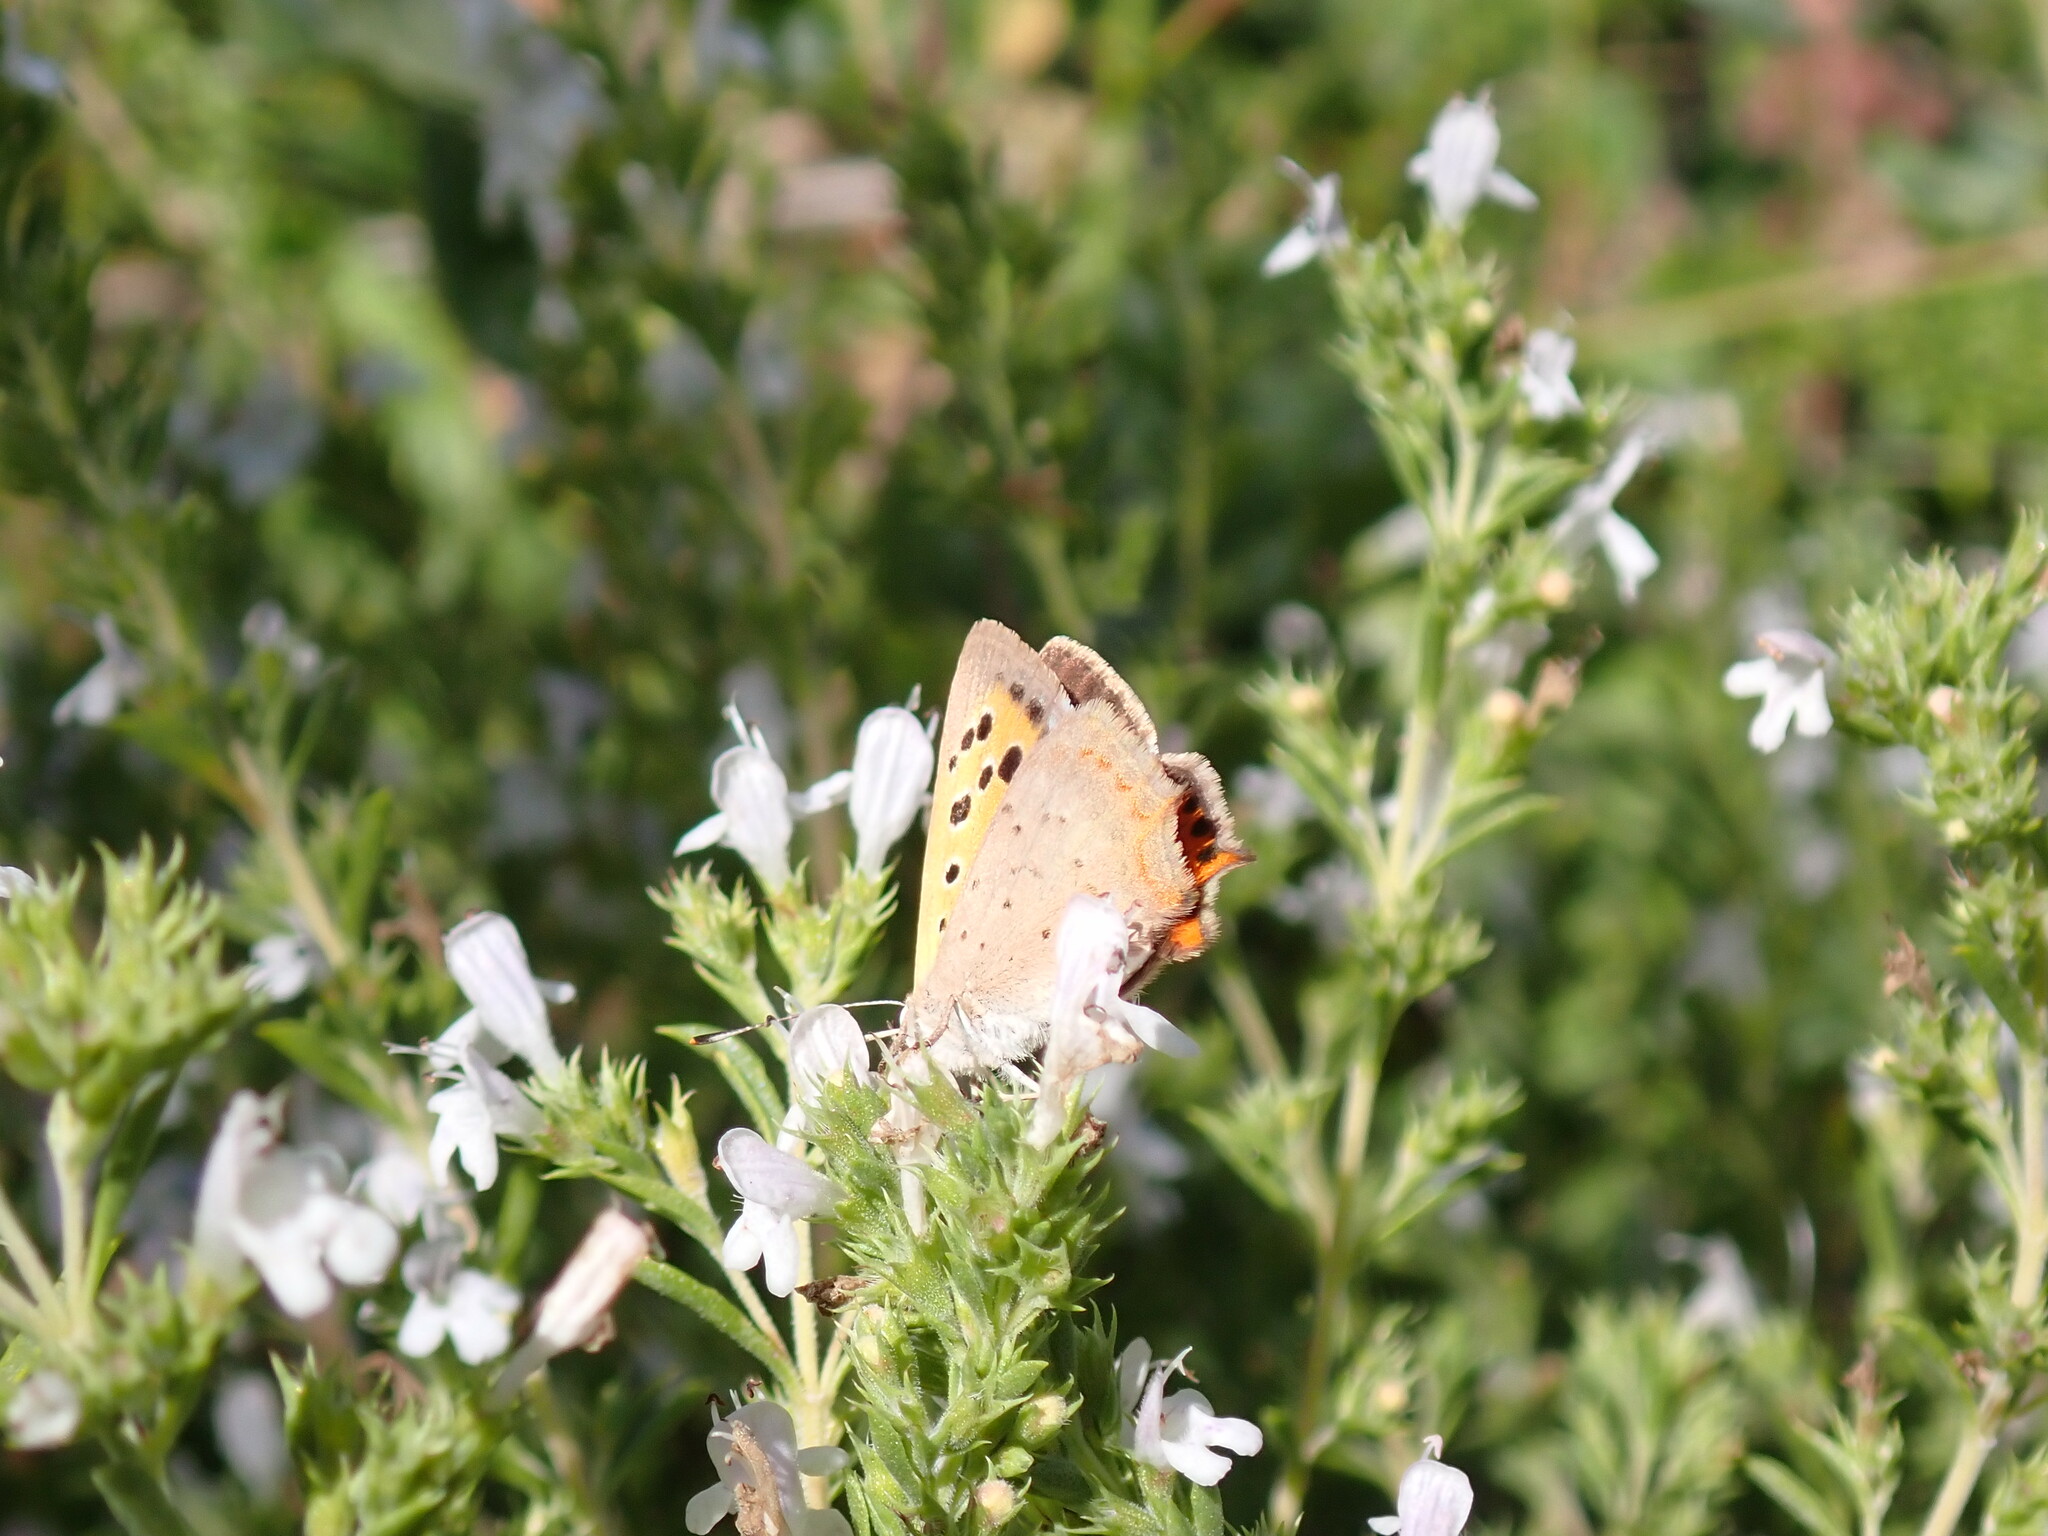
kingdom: Animalia
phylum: Arthropoda
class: Insecta
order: Lepidoptera
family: Lycaenidae
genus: Lycaena
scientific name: Lycaena phlaeas
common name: Small copper
